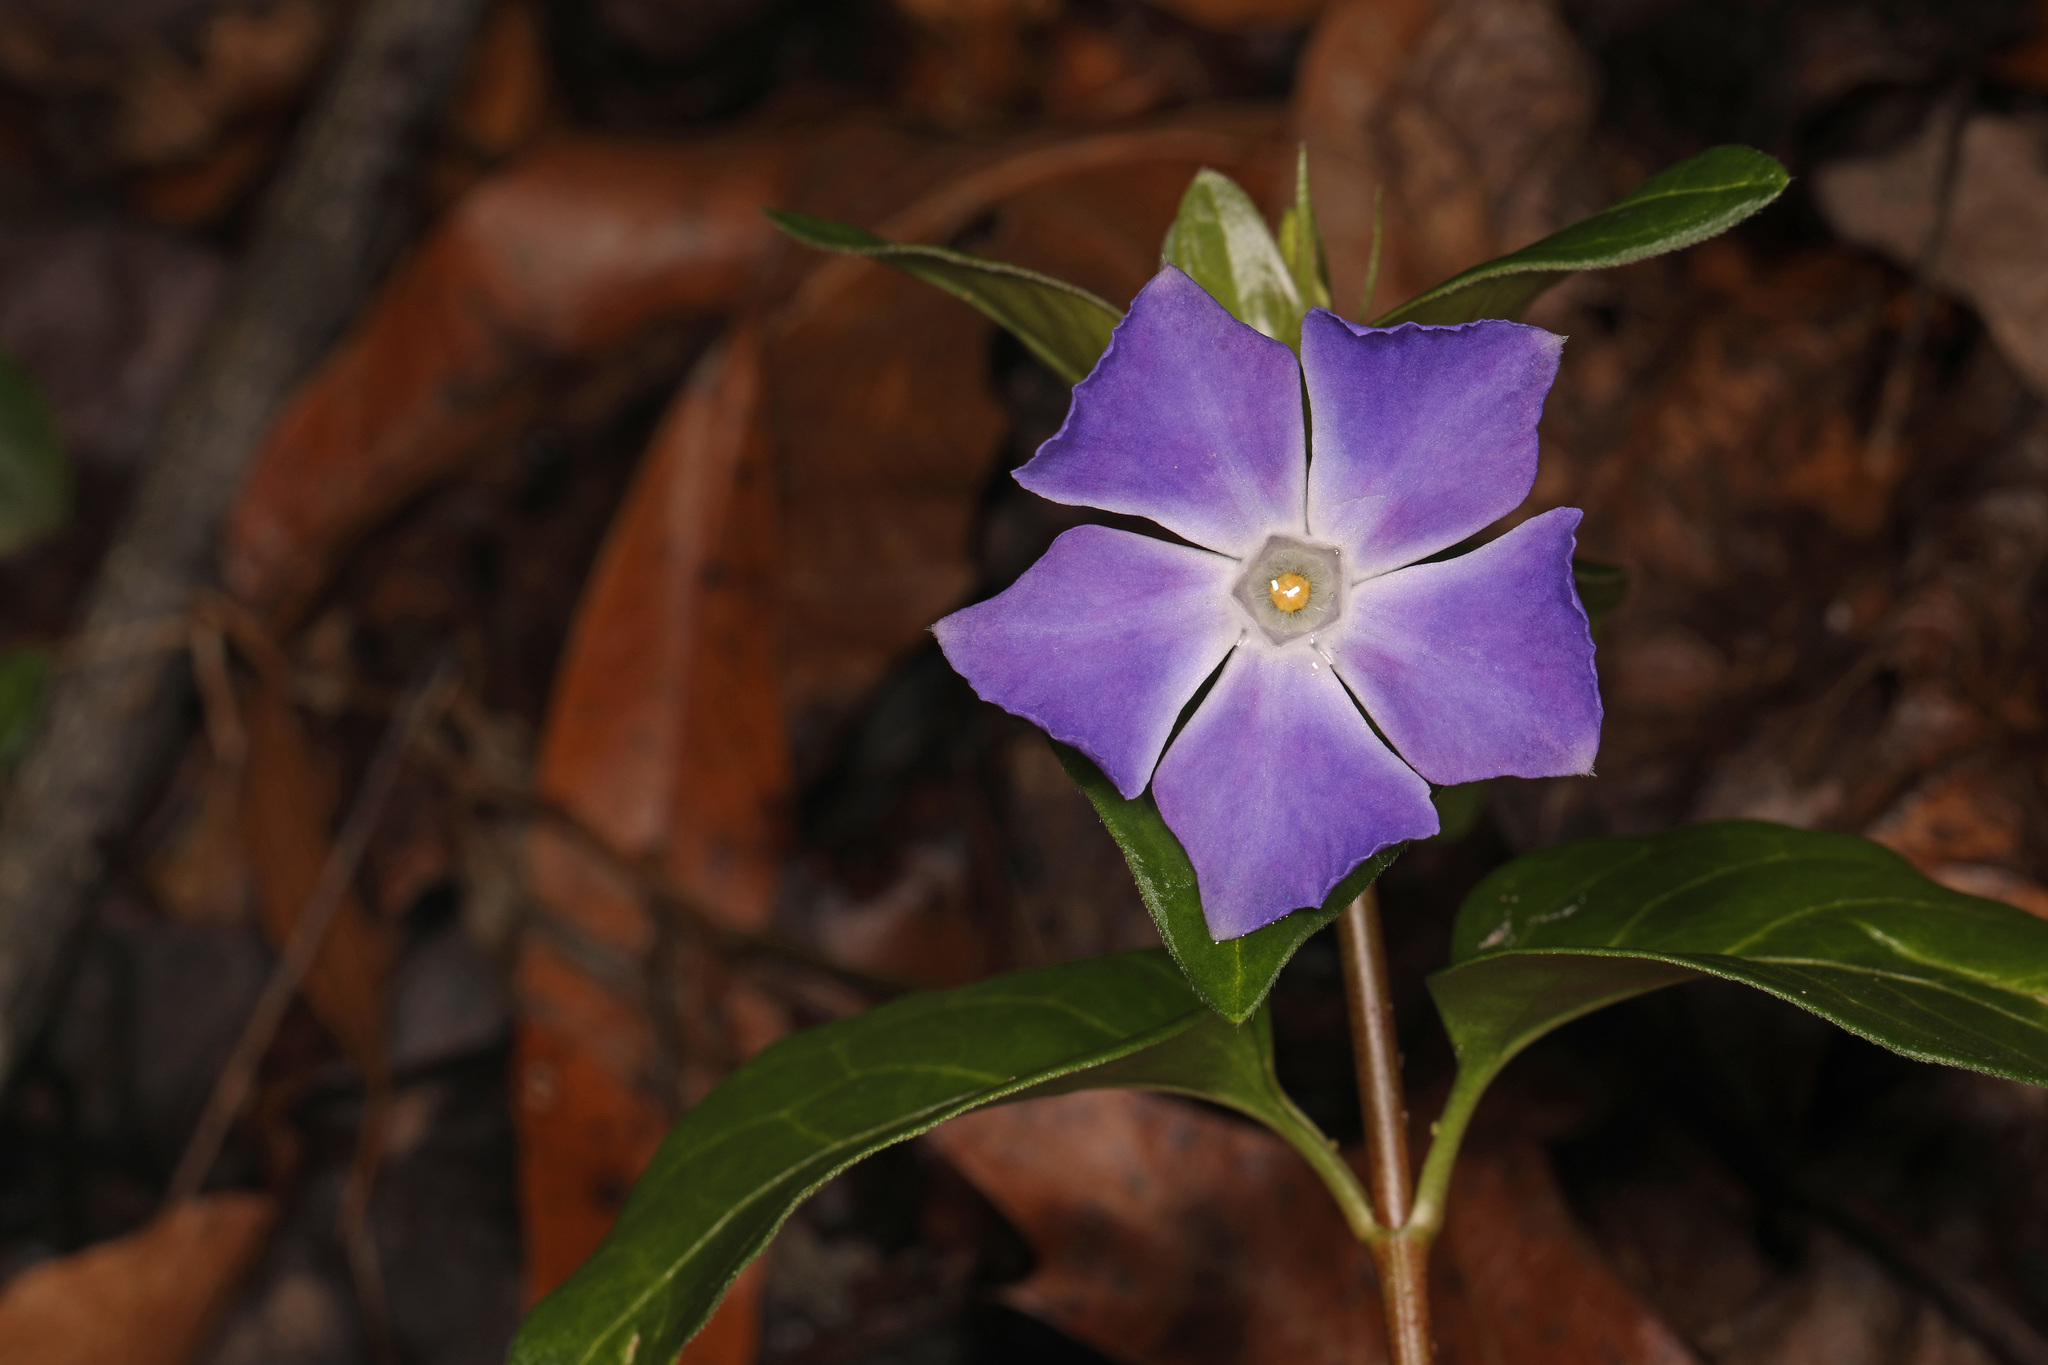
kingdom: Plantae
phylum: Tracheophyta
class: Magnoliopsida
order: Gentianales
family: Apocynaceae
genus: Vinca
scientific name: Vinca major
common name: Greater periwinkle
